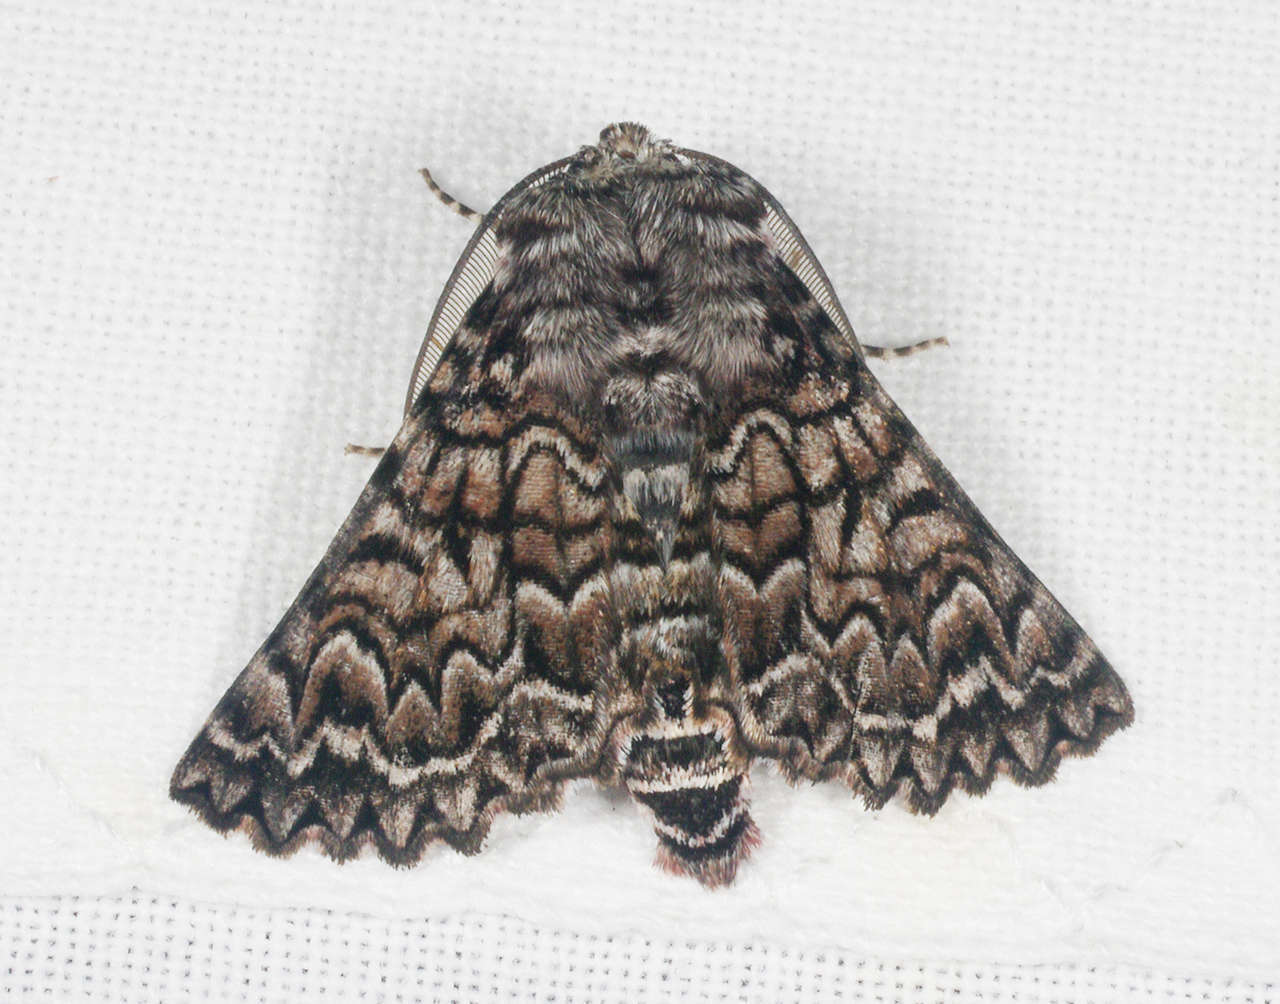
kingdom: Animalia
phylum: Arthropoda
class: Insecta
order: Lepidoptera
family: Geometridae
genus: Dinophalus
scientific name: Dinophalus serpentaria
